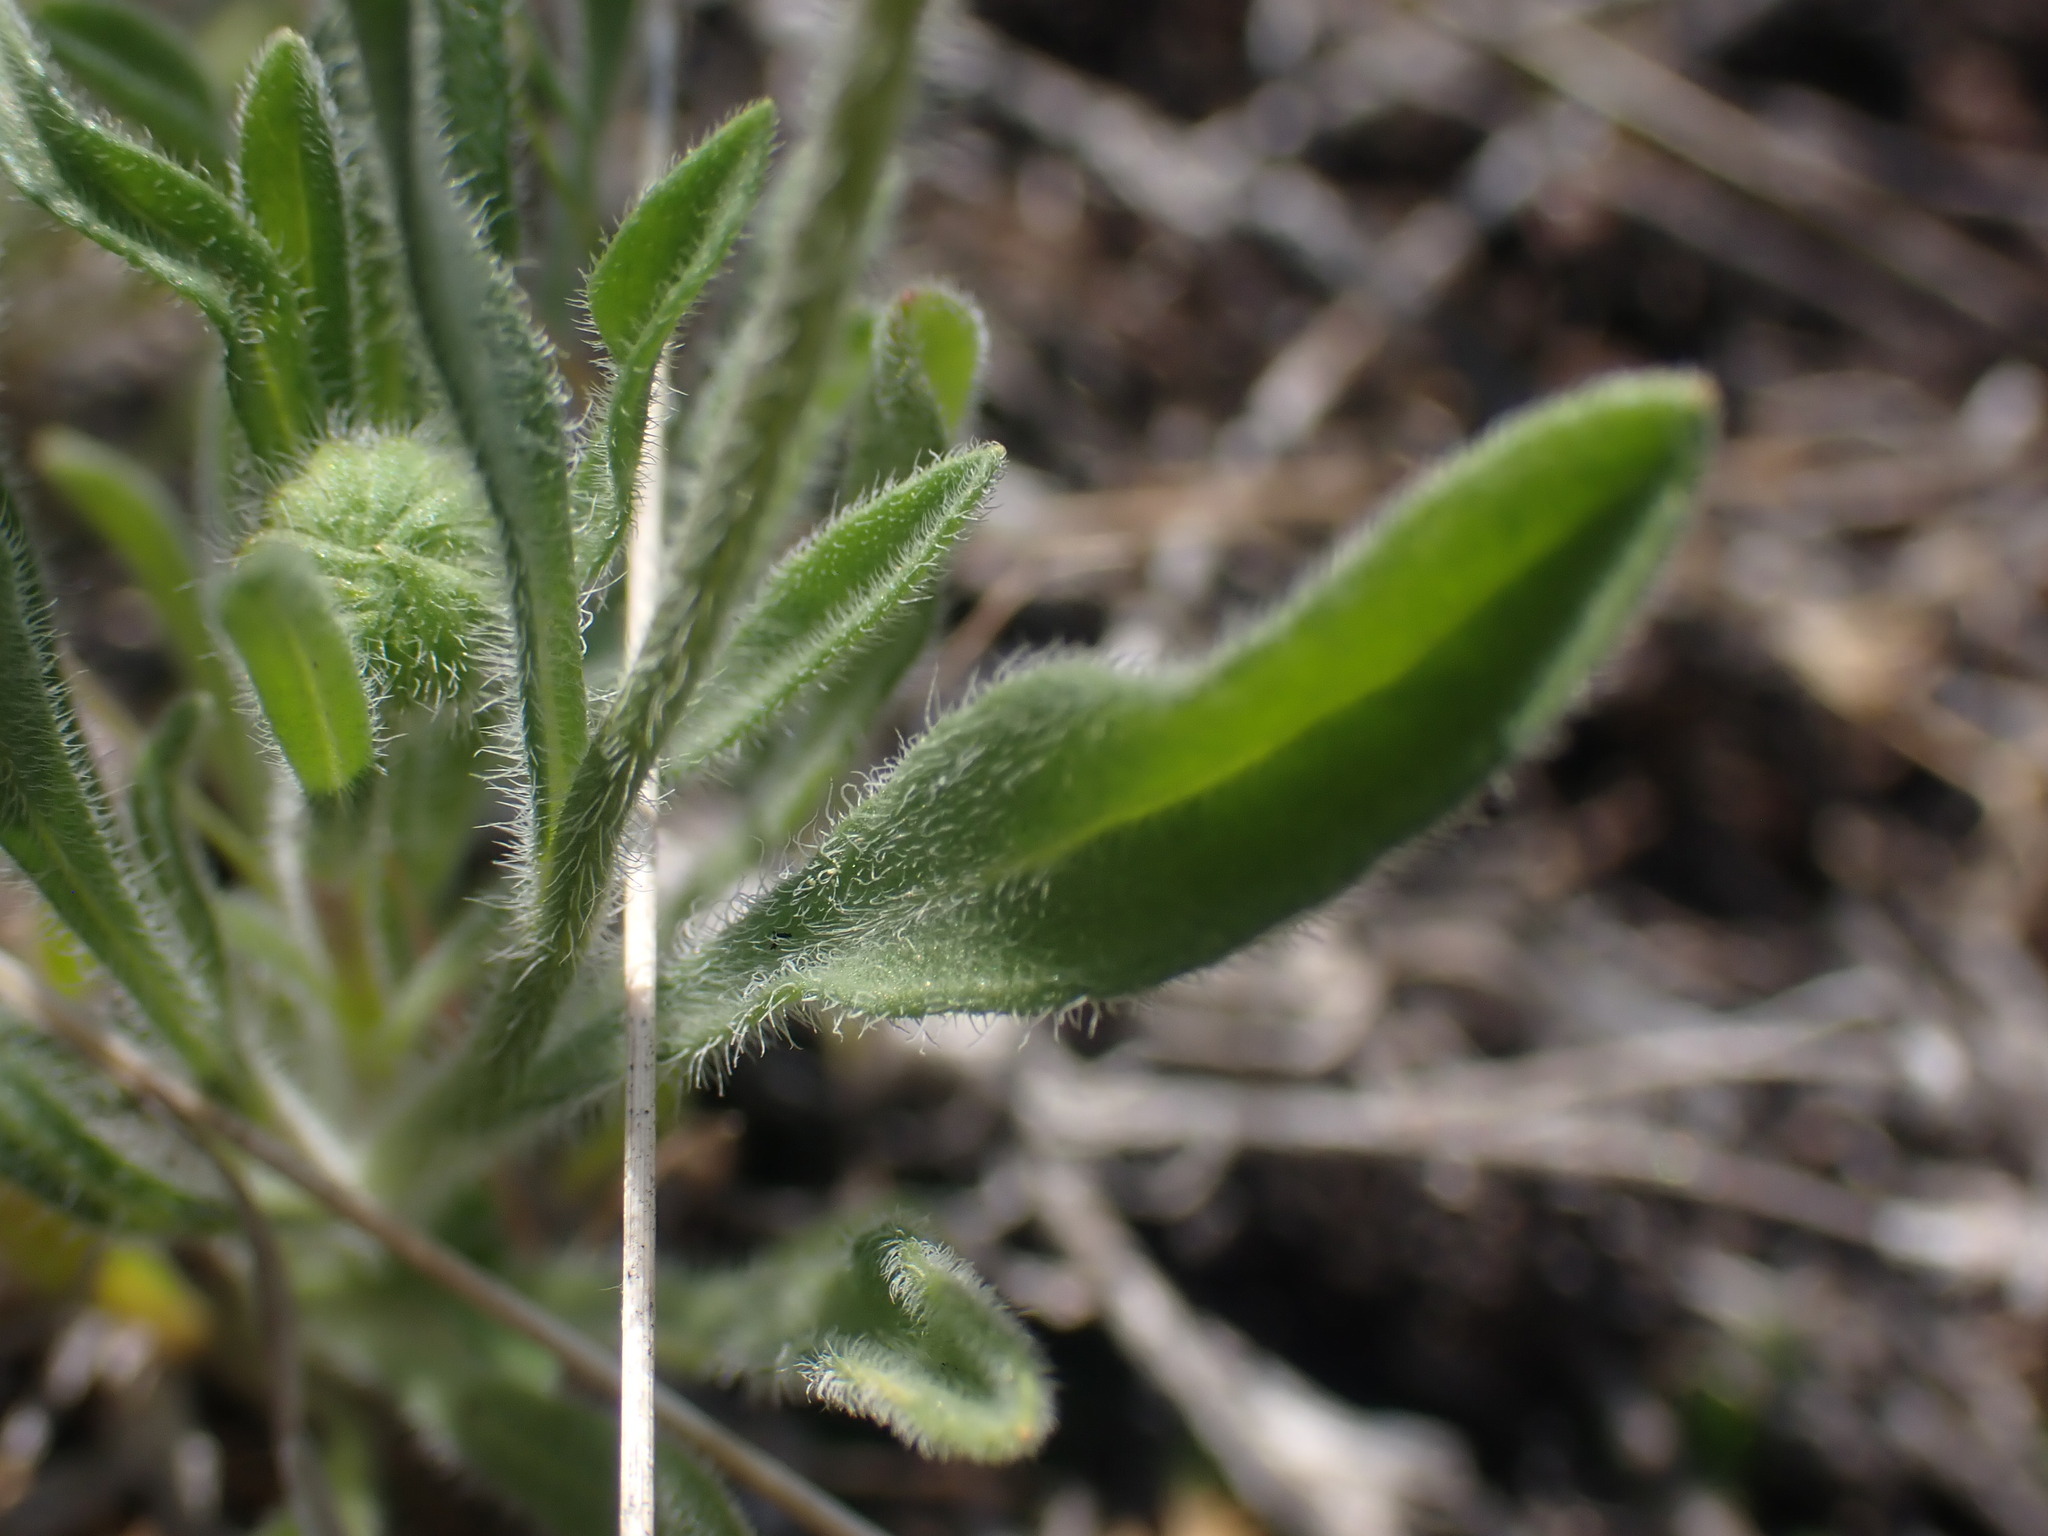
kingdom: Plantae
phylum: Tracheophyta
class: Magnoliopsida
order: Asterales
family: Asteraceae
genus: Erigeron
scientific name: Erigeron poliospermus
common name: Cushion fleabane
